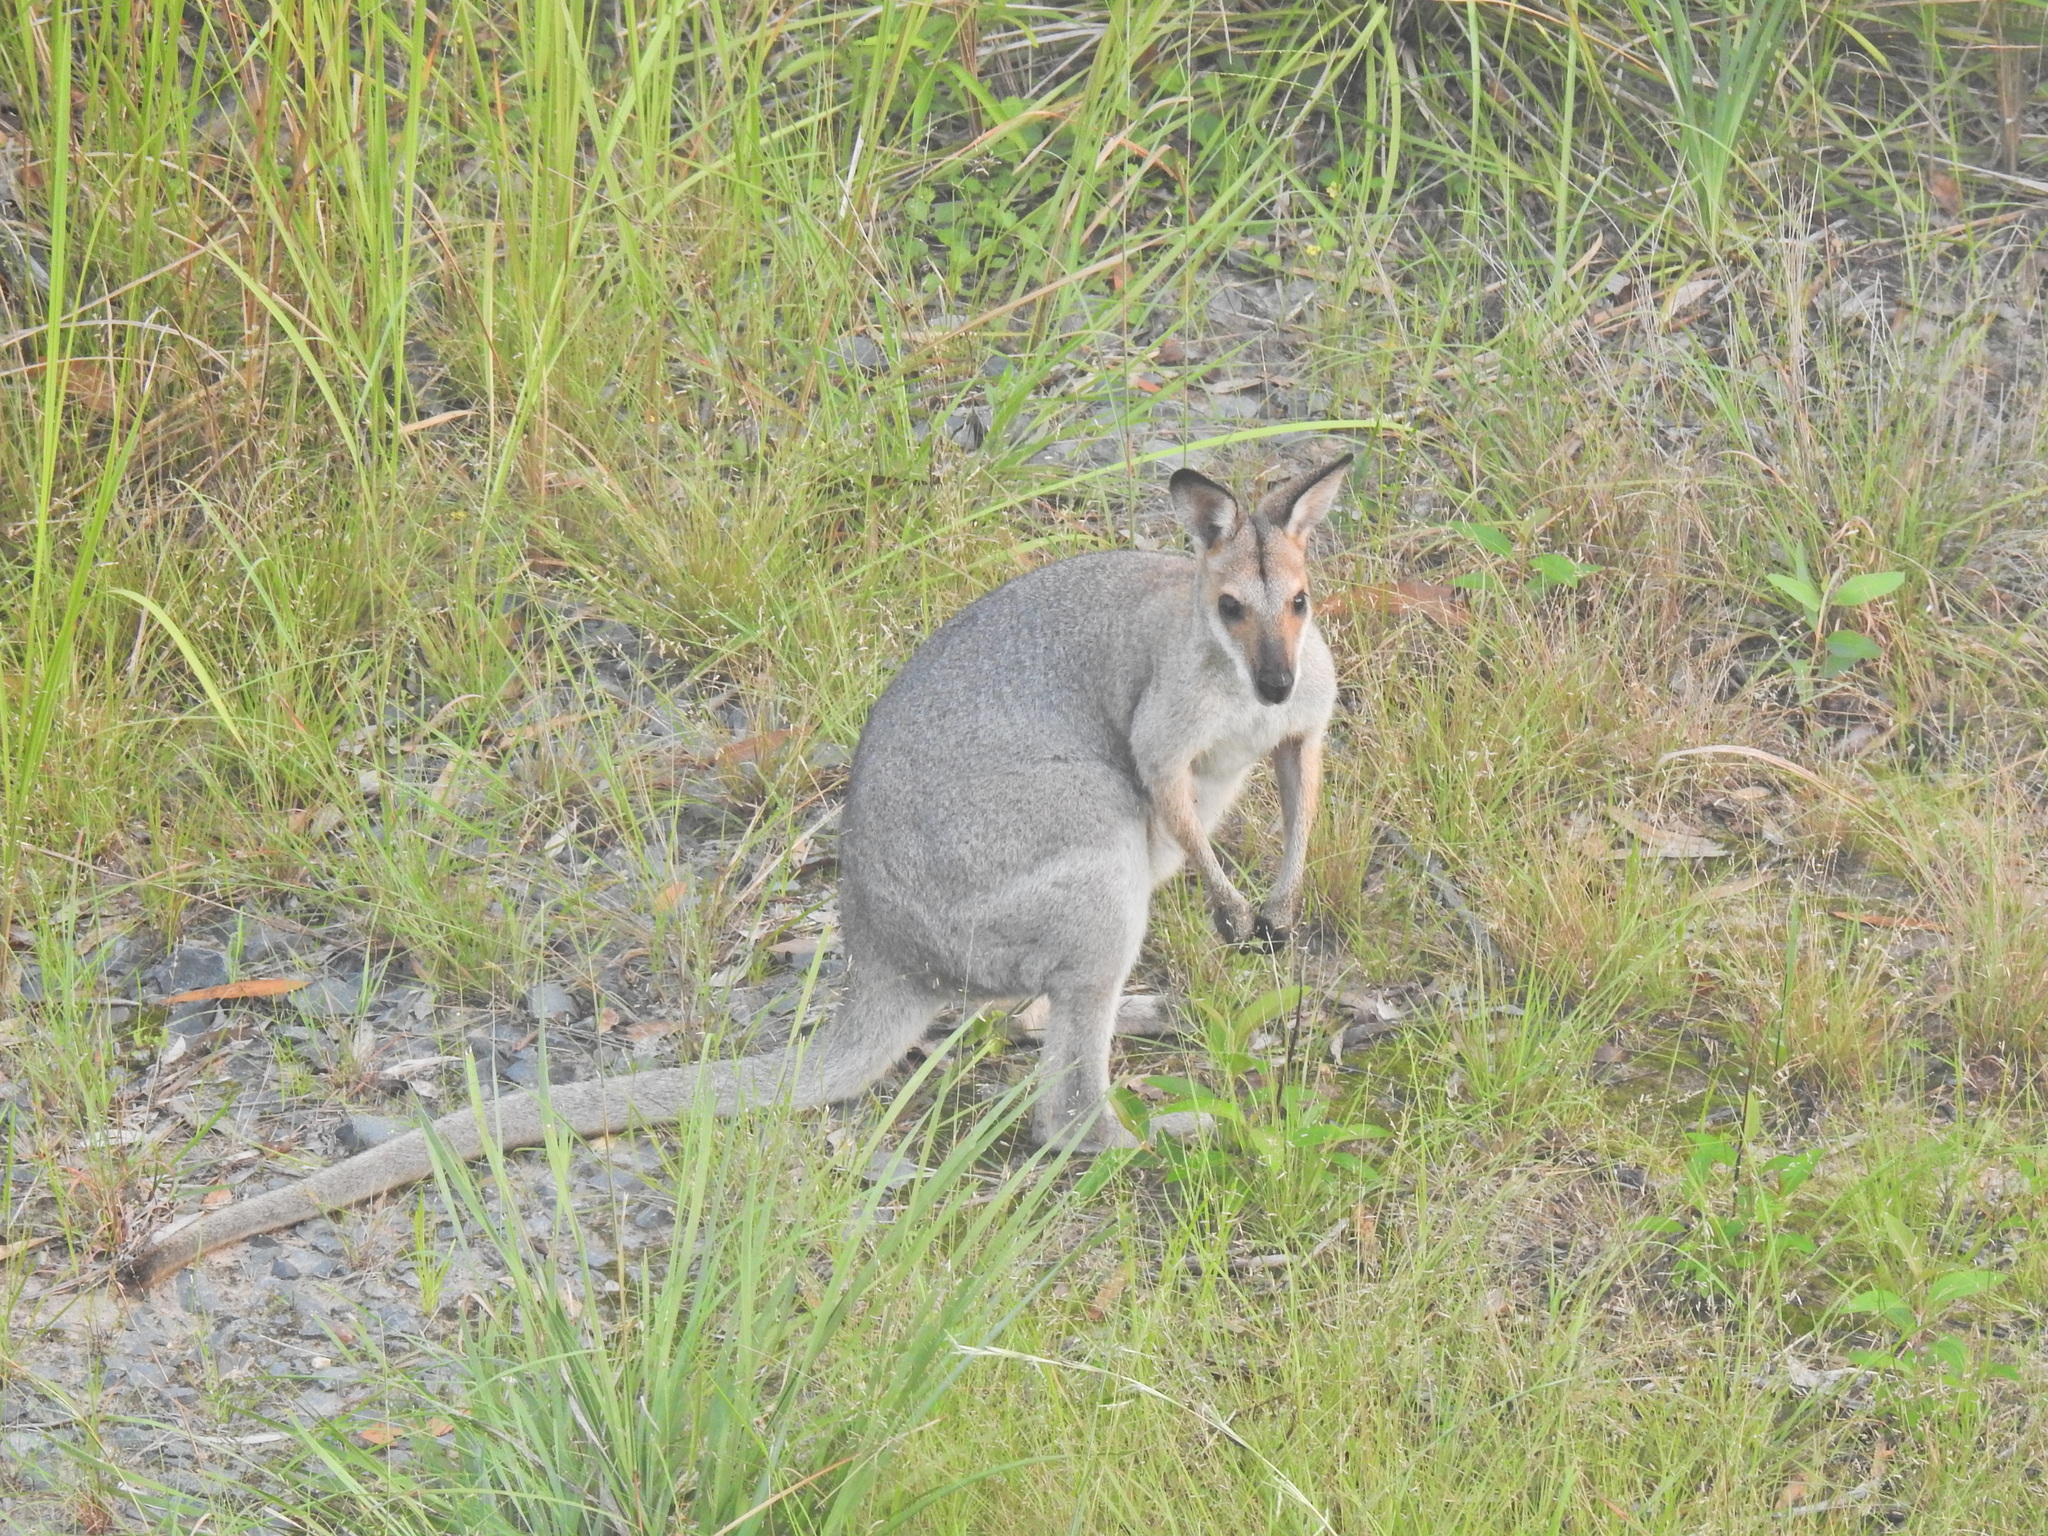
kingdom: Animalia
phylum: Chordata
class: Mammalia
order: Diprotodontia
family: Macropodidae
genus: Notamacropus
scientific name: Notamacropus rufogriseus
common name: Red-necked wallaby
